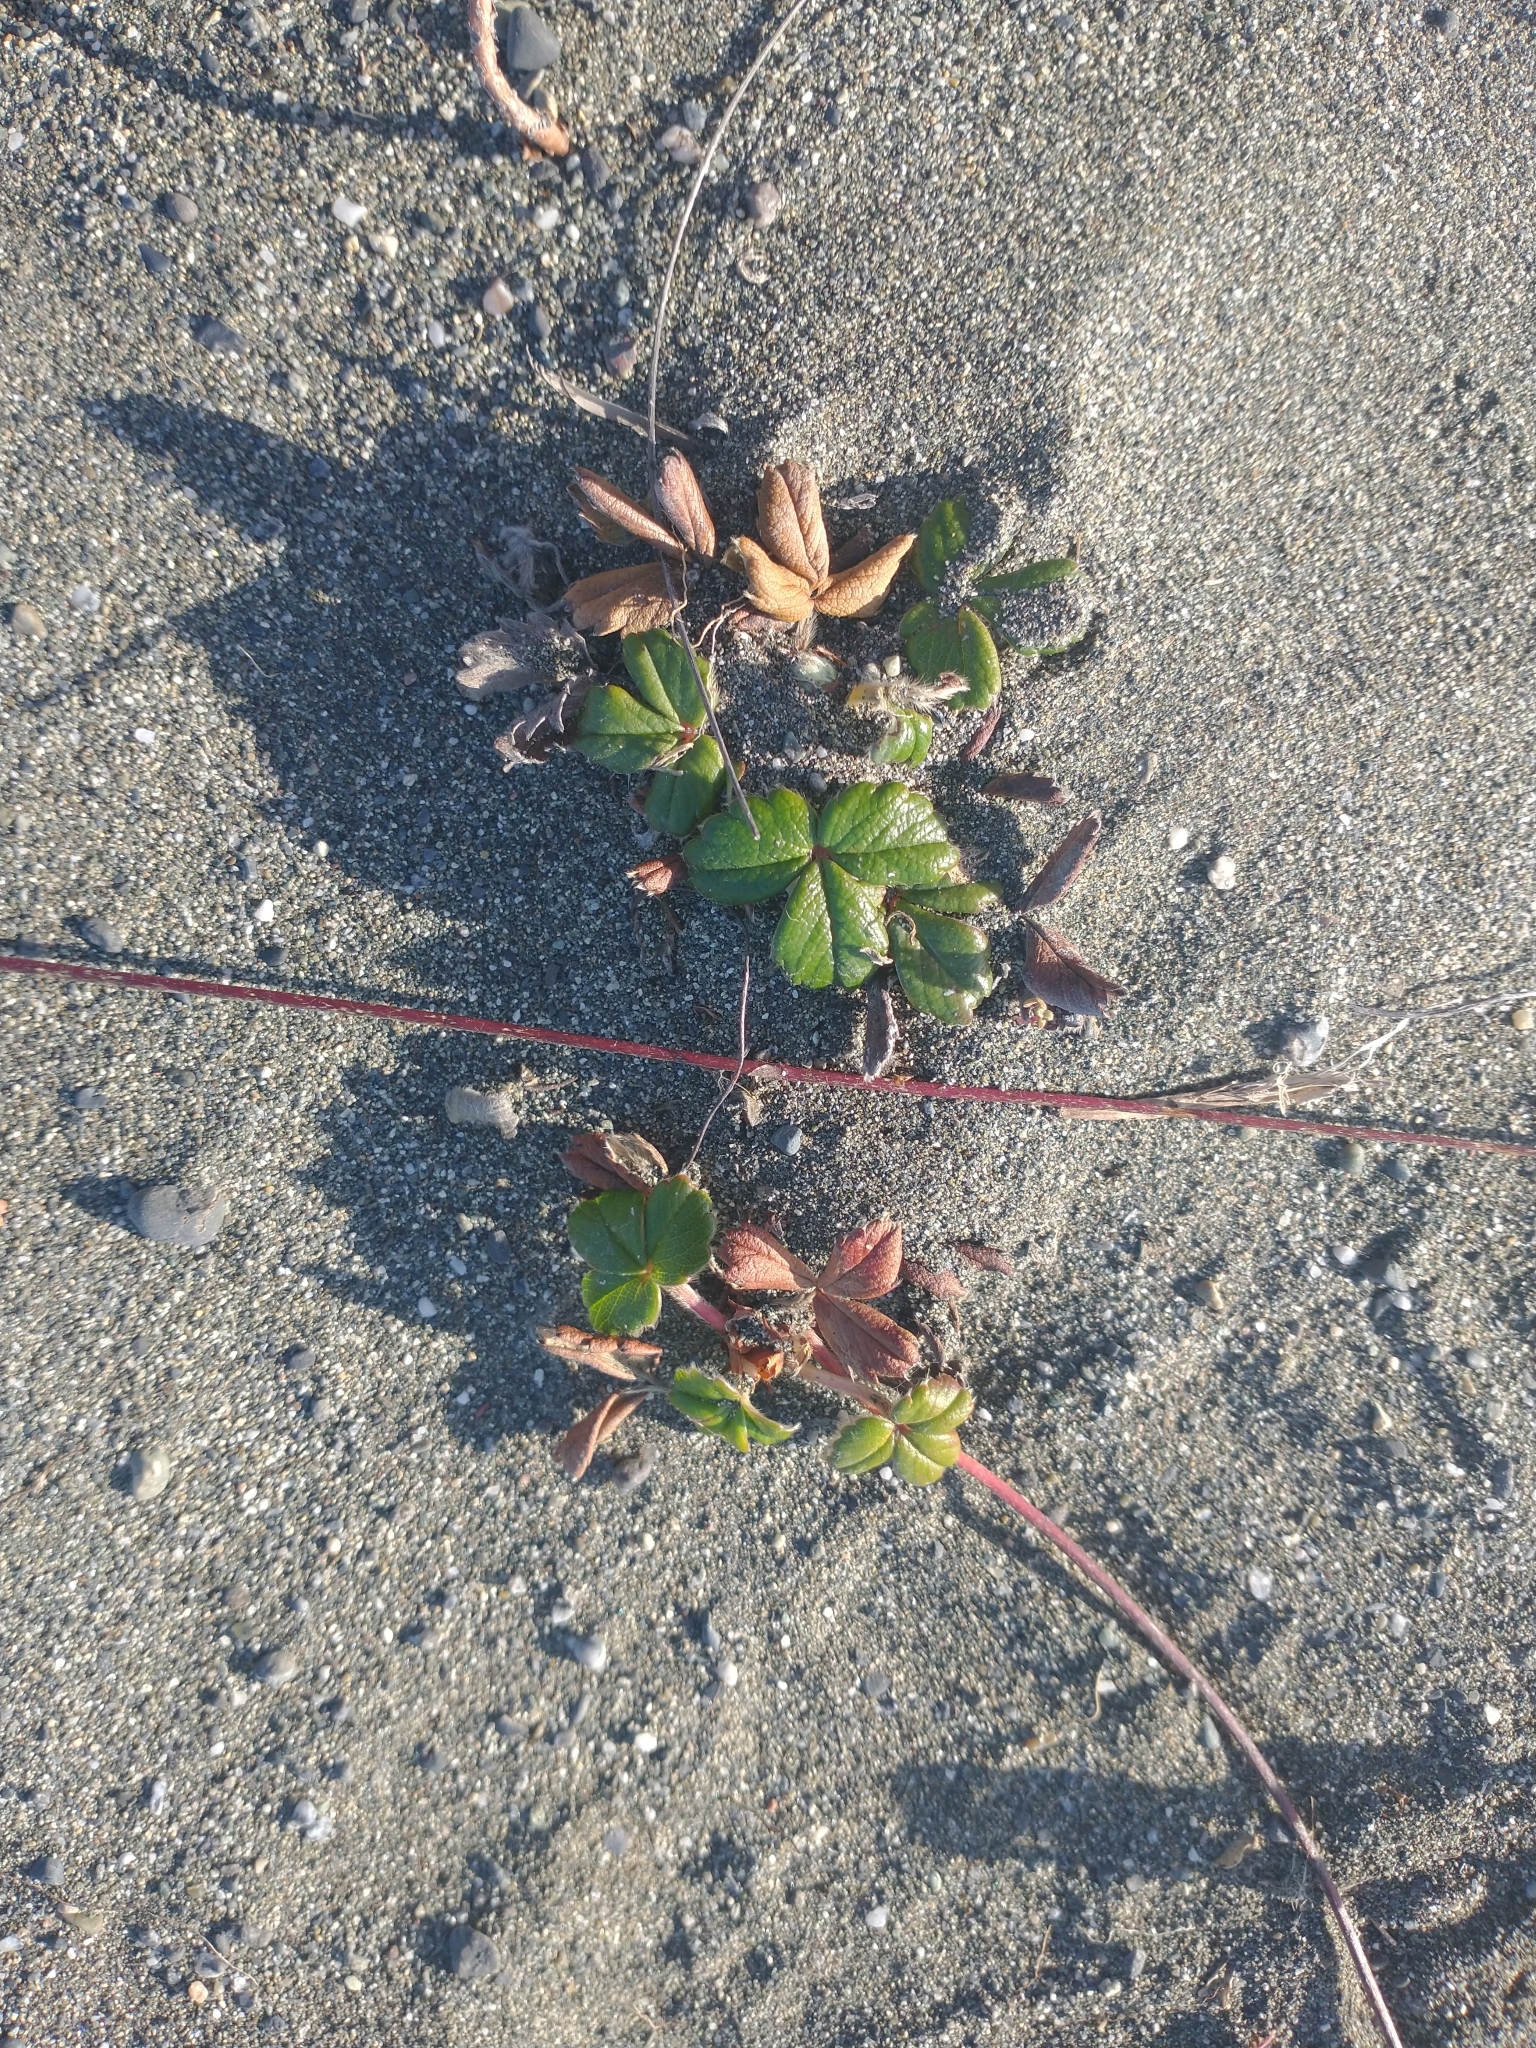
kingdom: Plantae
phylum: Tracheophyta
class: Magnoliopsida
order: Rosales
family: Rosaceae
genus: Fragaria
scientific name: Fragaria chiloensis
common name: Beach strawberry
